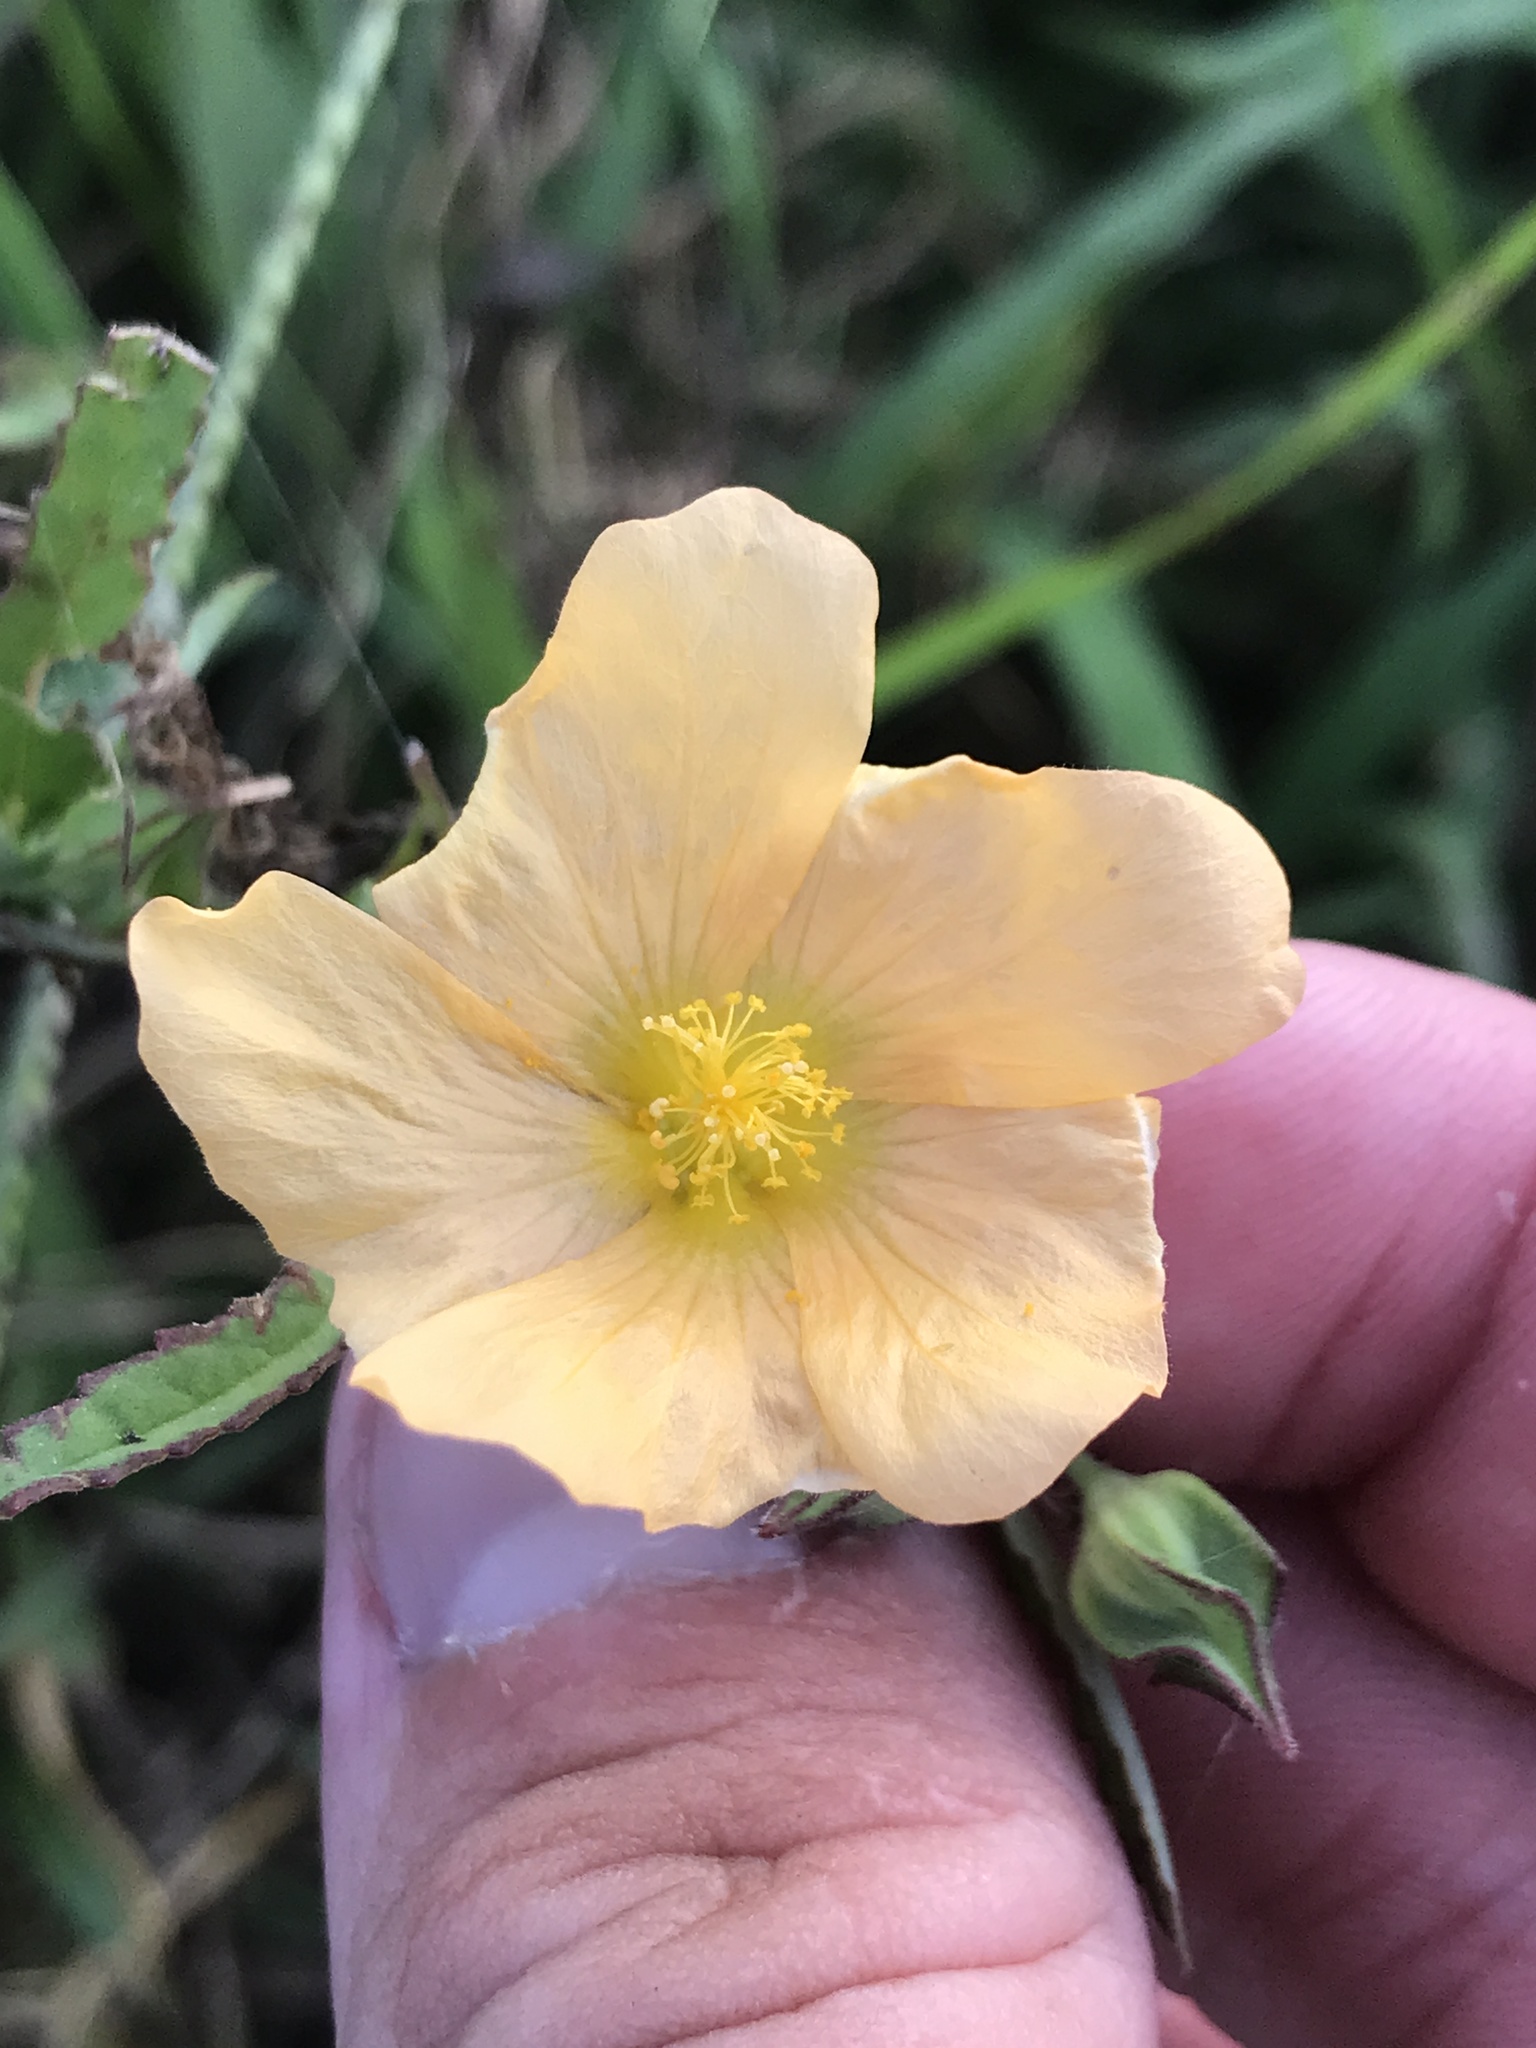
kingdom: Plantae
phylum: Tracheophyta
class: Magnoliopsida
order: Malvales
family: Malvaceae
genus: Sida
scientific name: Sida abutilifolia
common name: Spreading fanpetals
